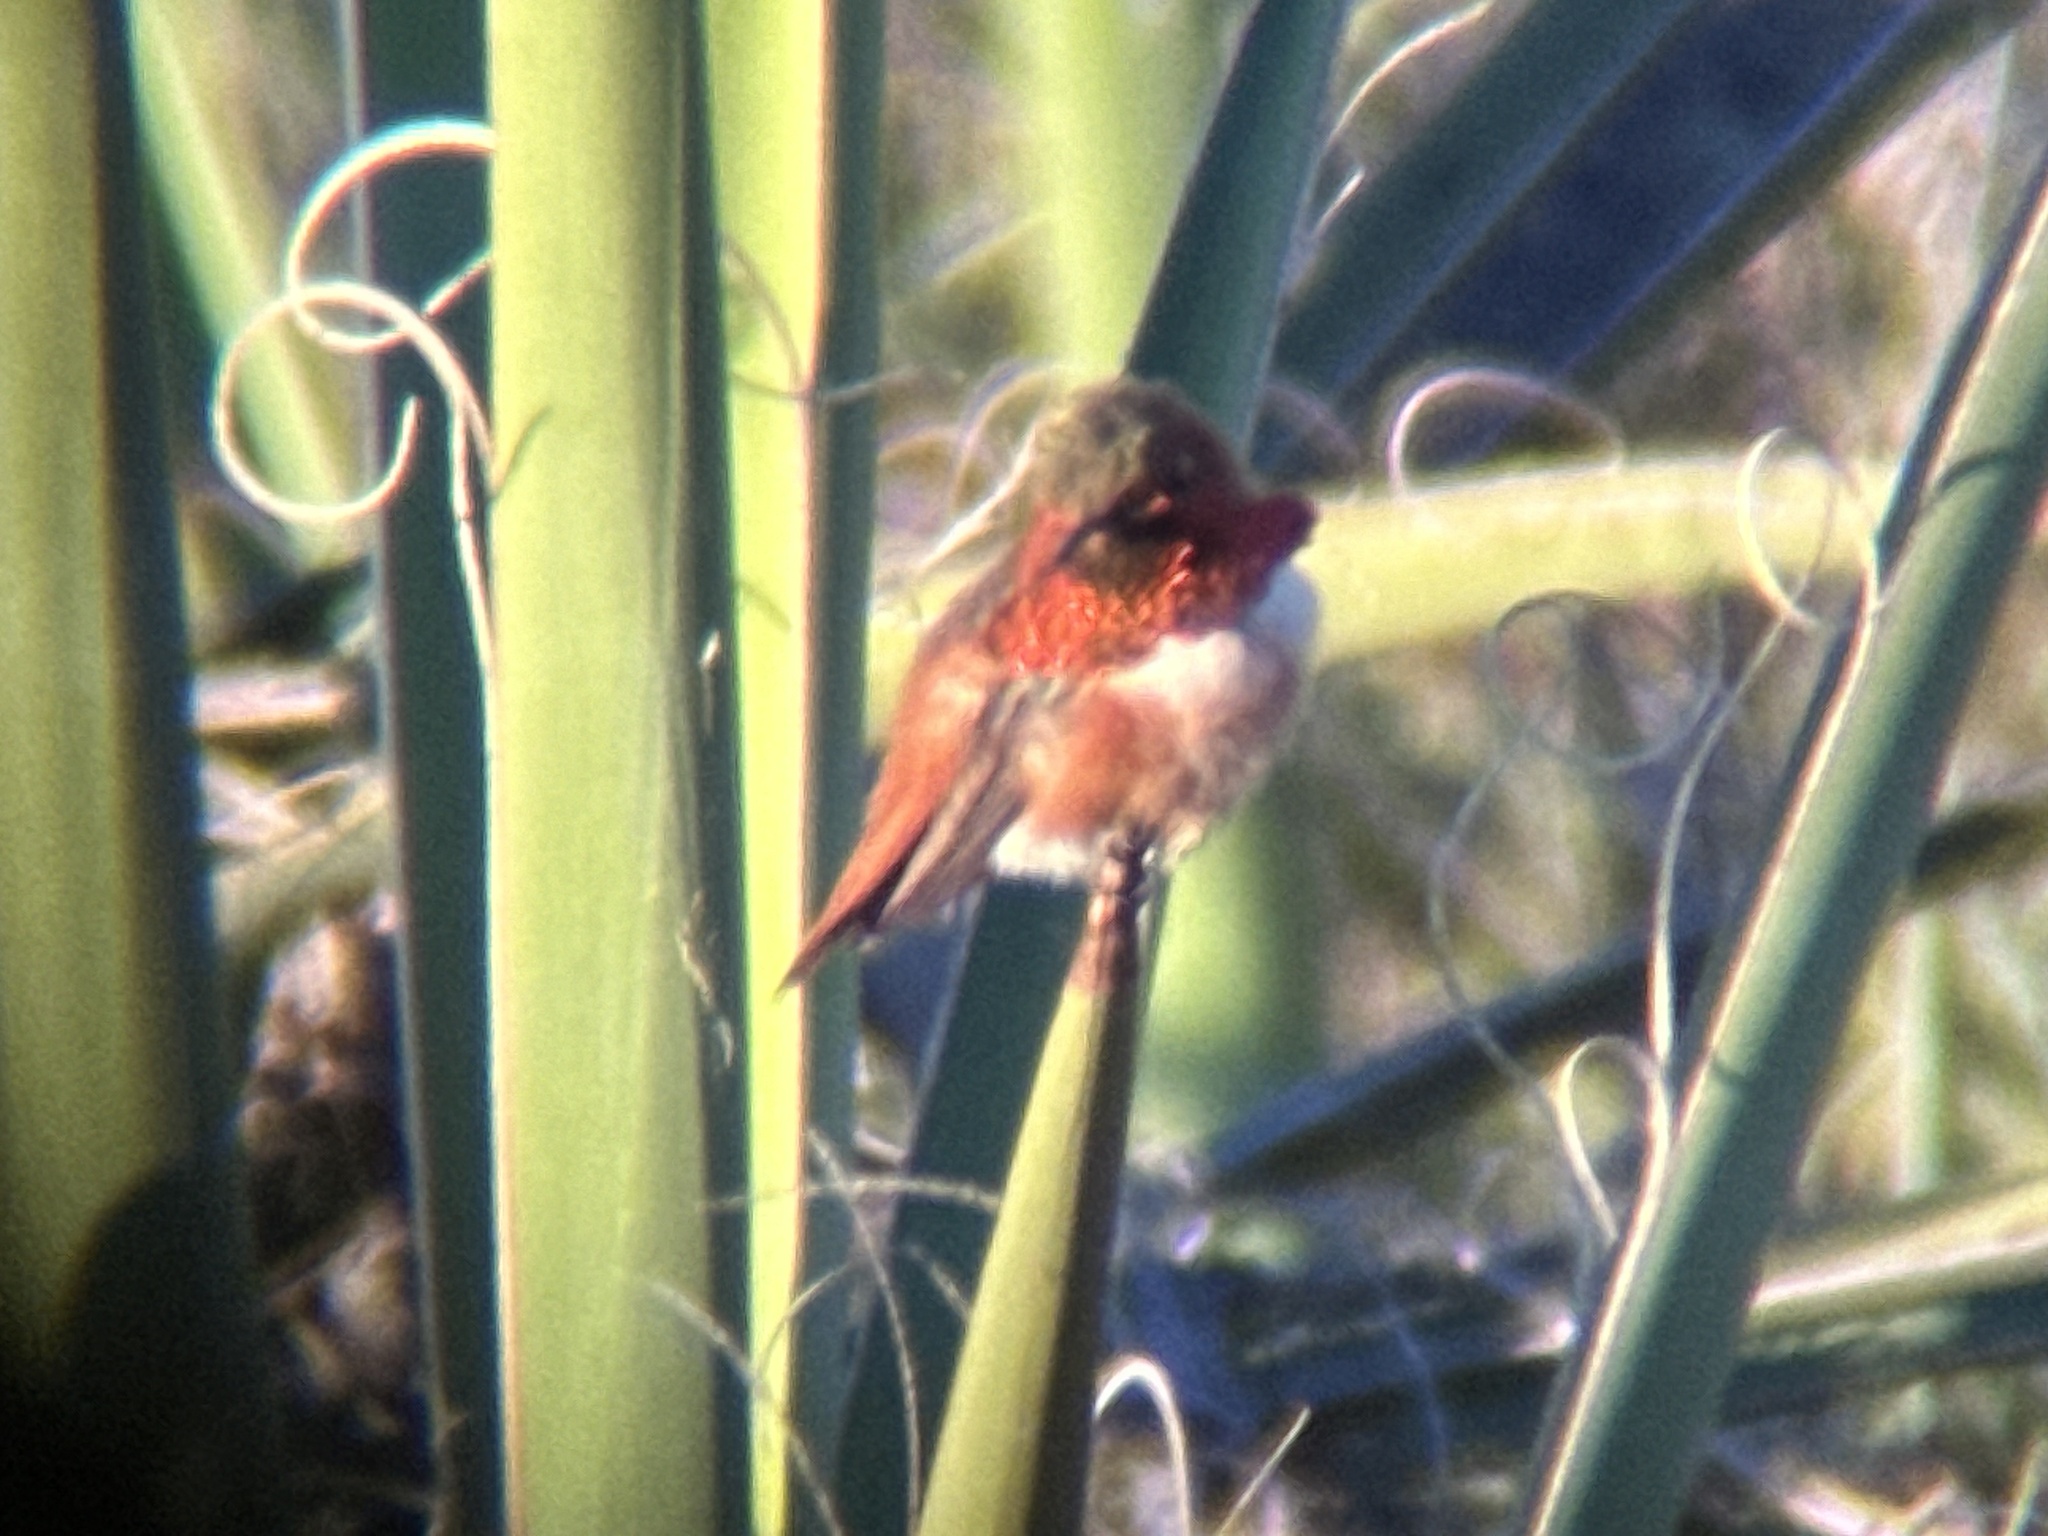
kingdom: Animalia
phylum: Chordata
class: Aves
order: Apodiformes
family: Trochilidae
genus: Selasphorus
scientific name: Selasphorus sasin
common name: Allen's hummingbird
